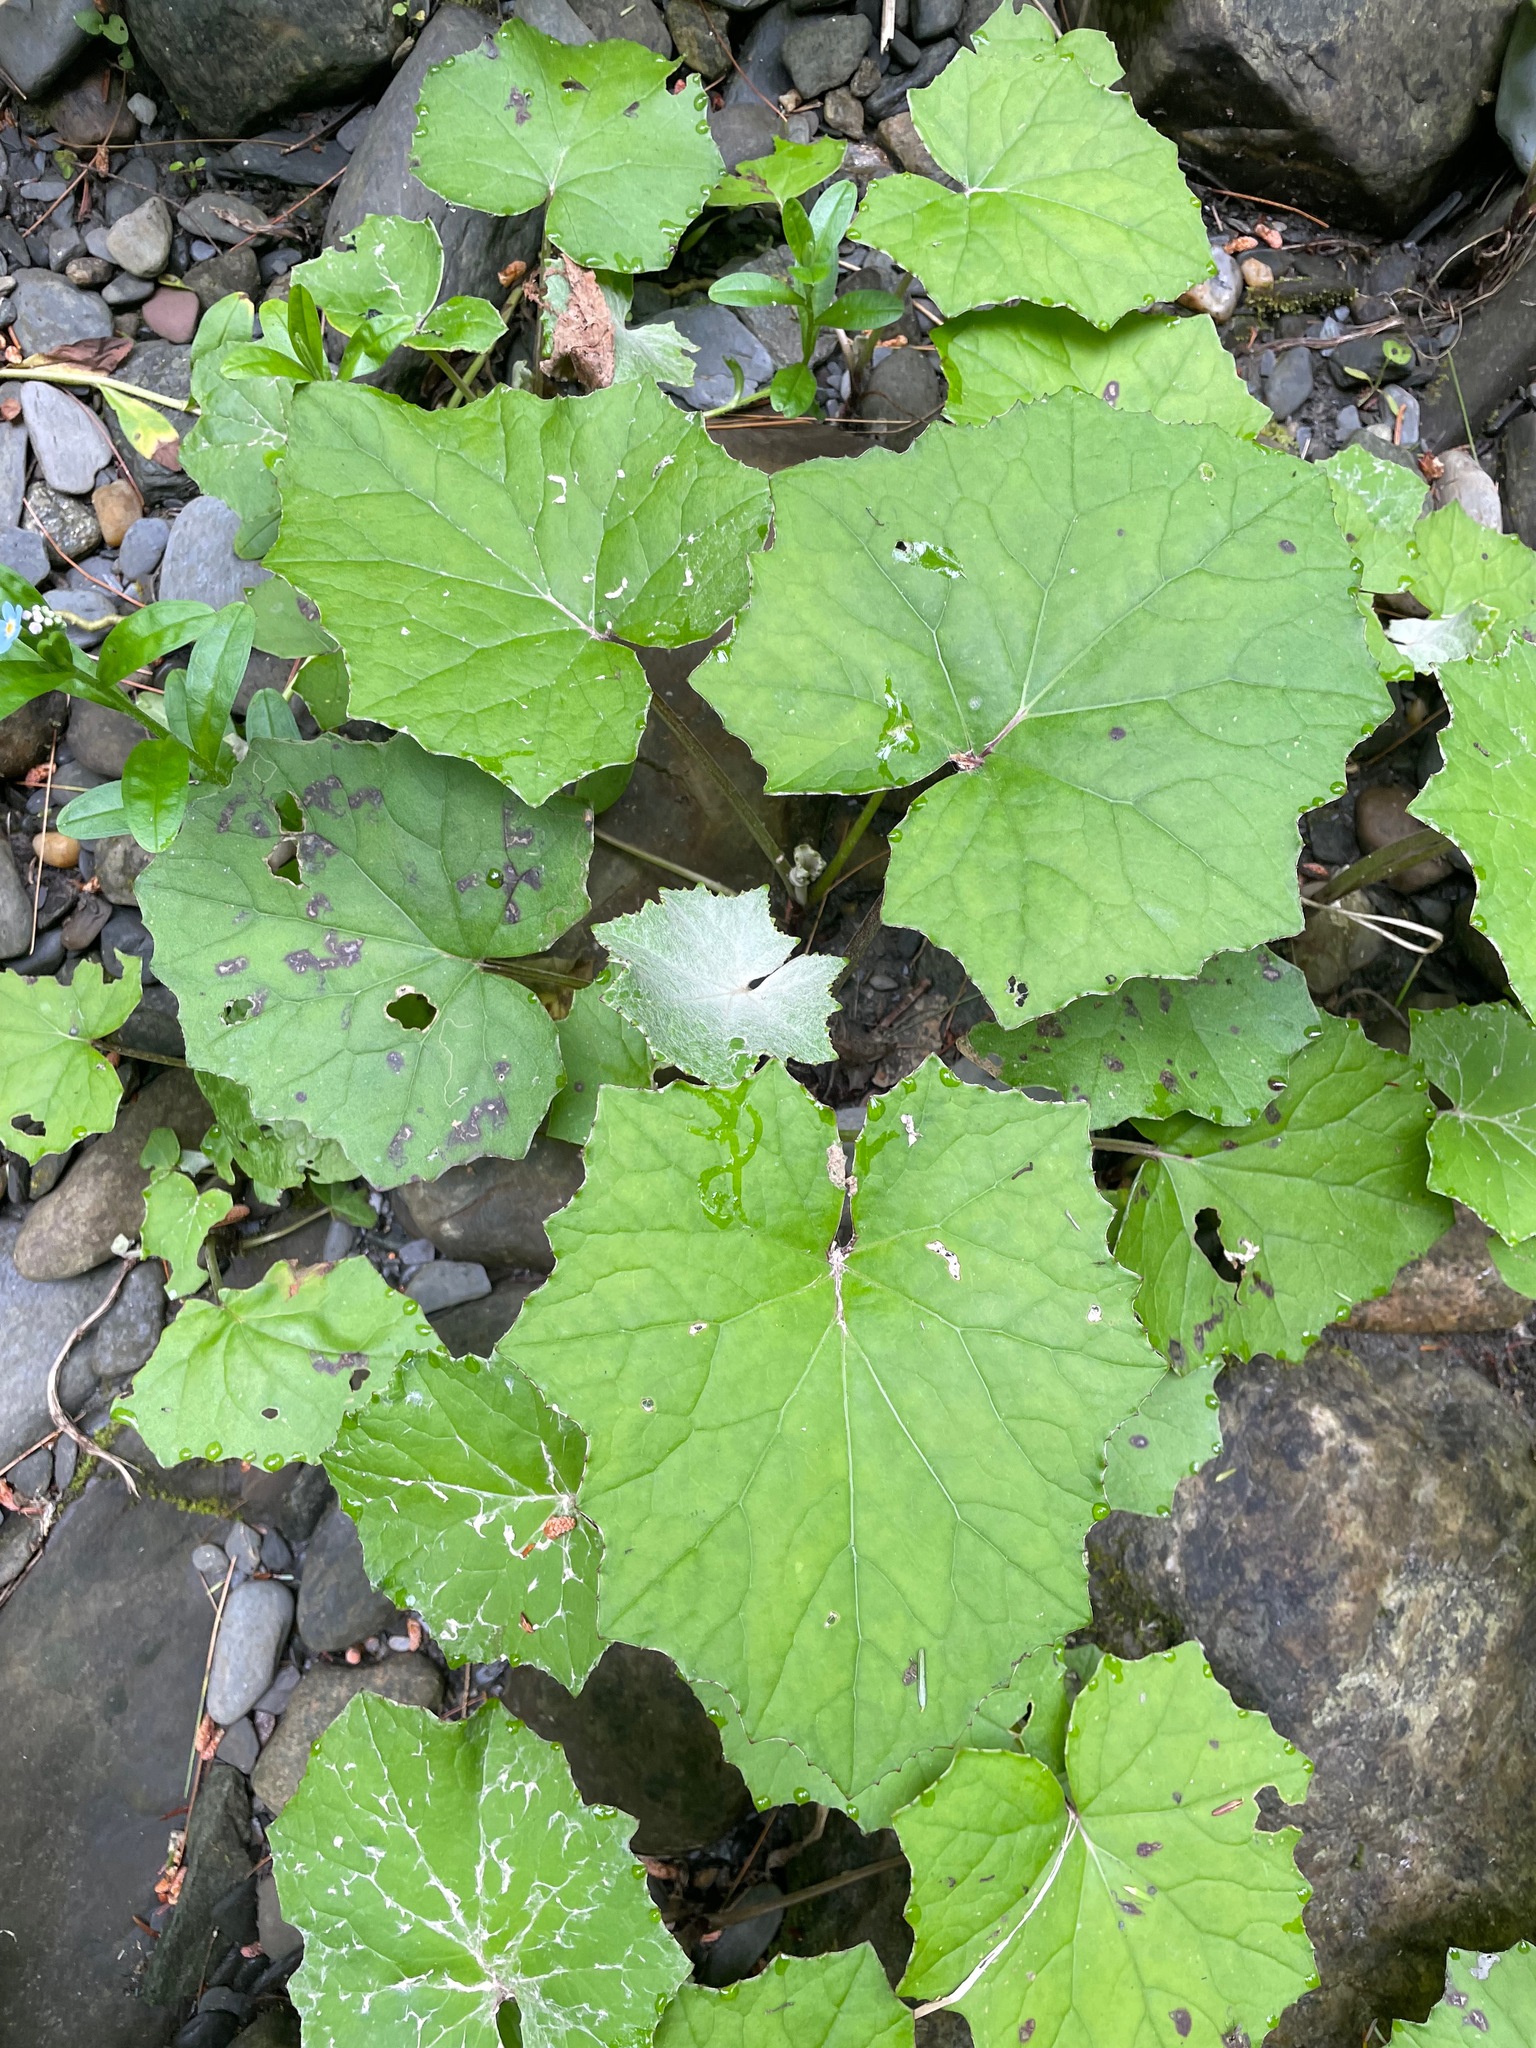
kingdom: Plantae
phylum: Tracheophyta
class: Magnoliopsida
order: Asterales
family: Asteraceae
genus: Tussilago
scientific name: Tussilago farfara
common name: Coltsfoot
